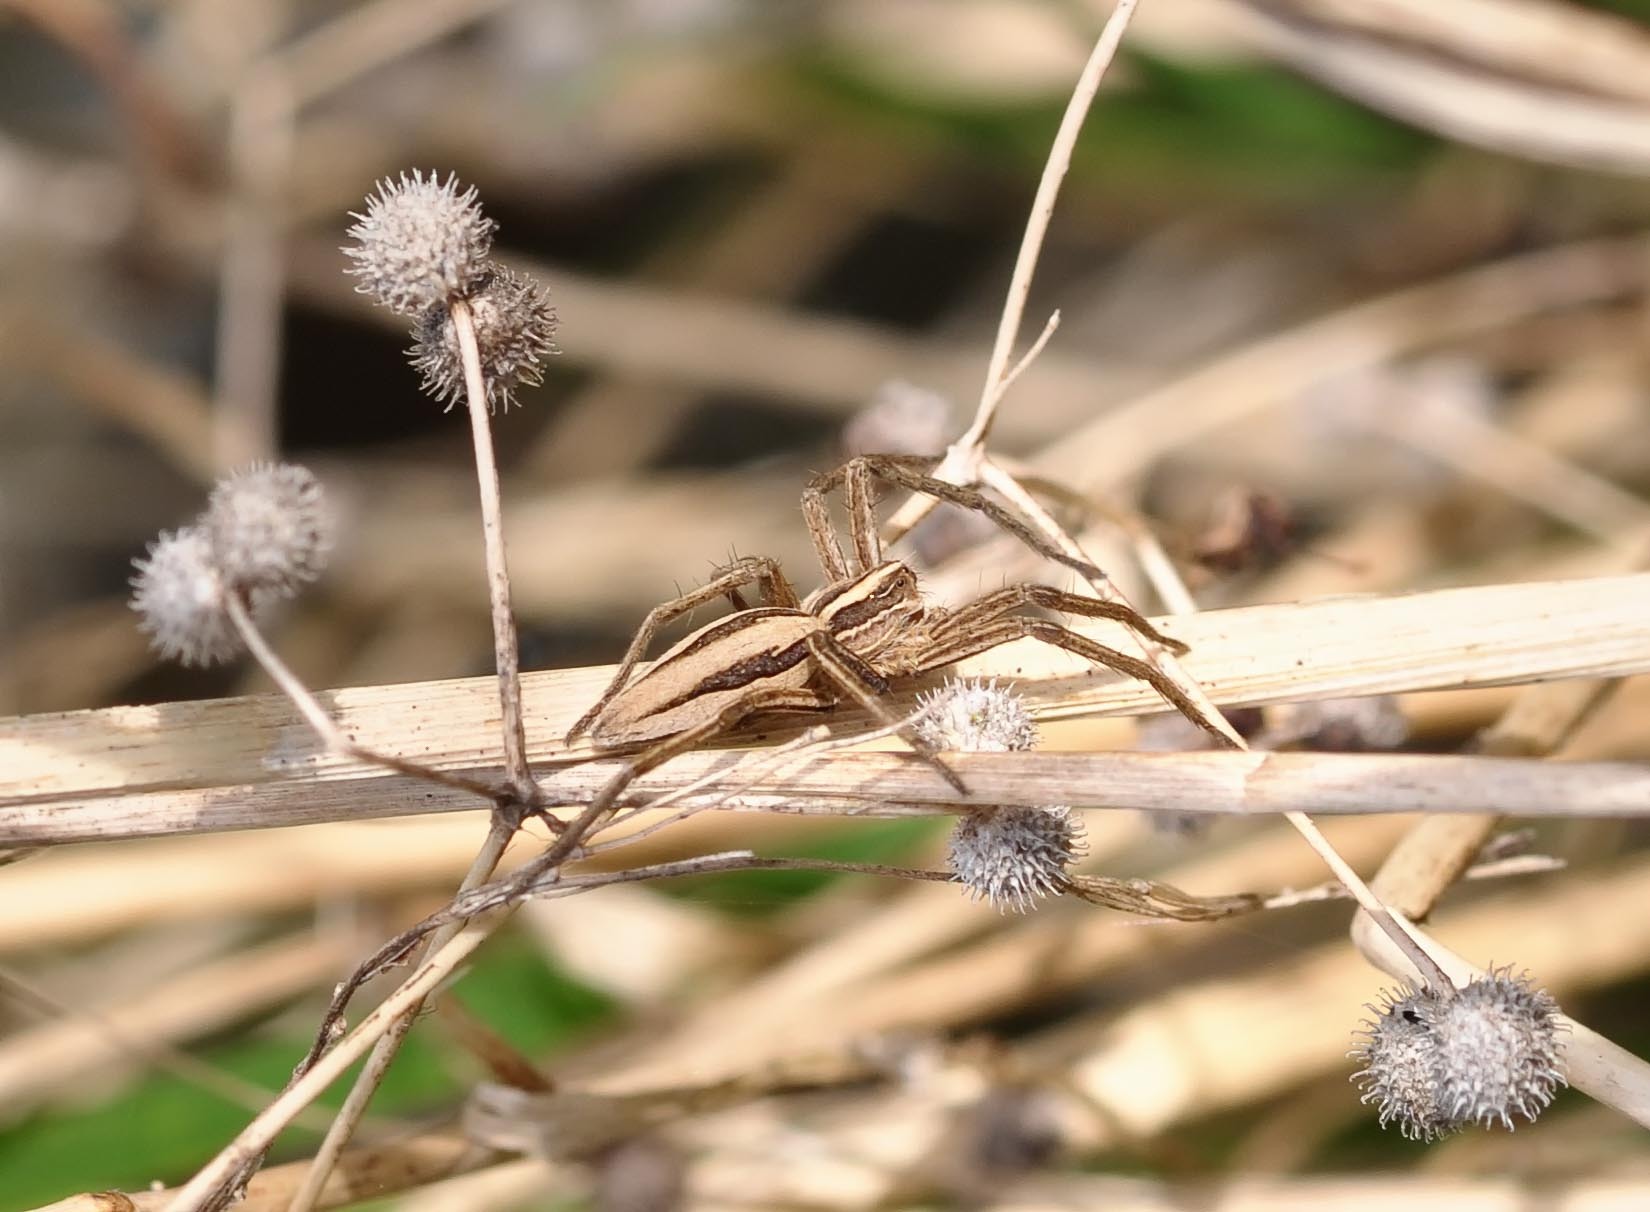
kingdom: Animalia
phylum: Arthropoda
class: Arachnida
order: Araneae
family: Pisauridae
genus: Pisaura
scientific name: Pisaura mirabilis
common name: Tent spider
